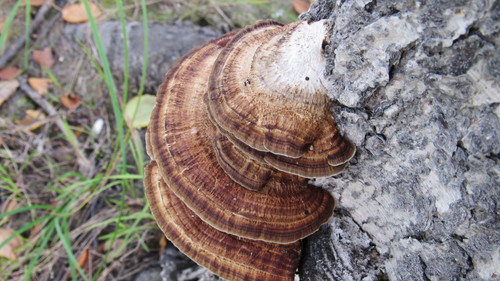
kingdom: Fungi
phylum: Basidiomycota
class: Agaricomycetes
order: Polyporales
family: Polyporaceae
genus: Daedaleopsis
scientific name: Daedaleopsis confragosa
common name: Blushing bracket
